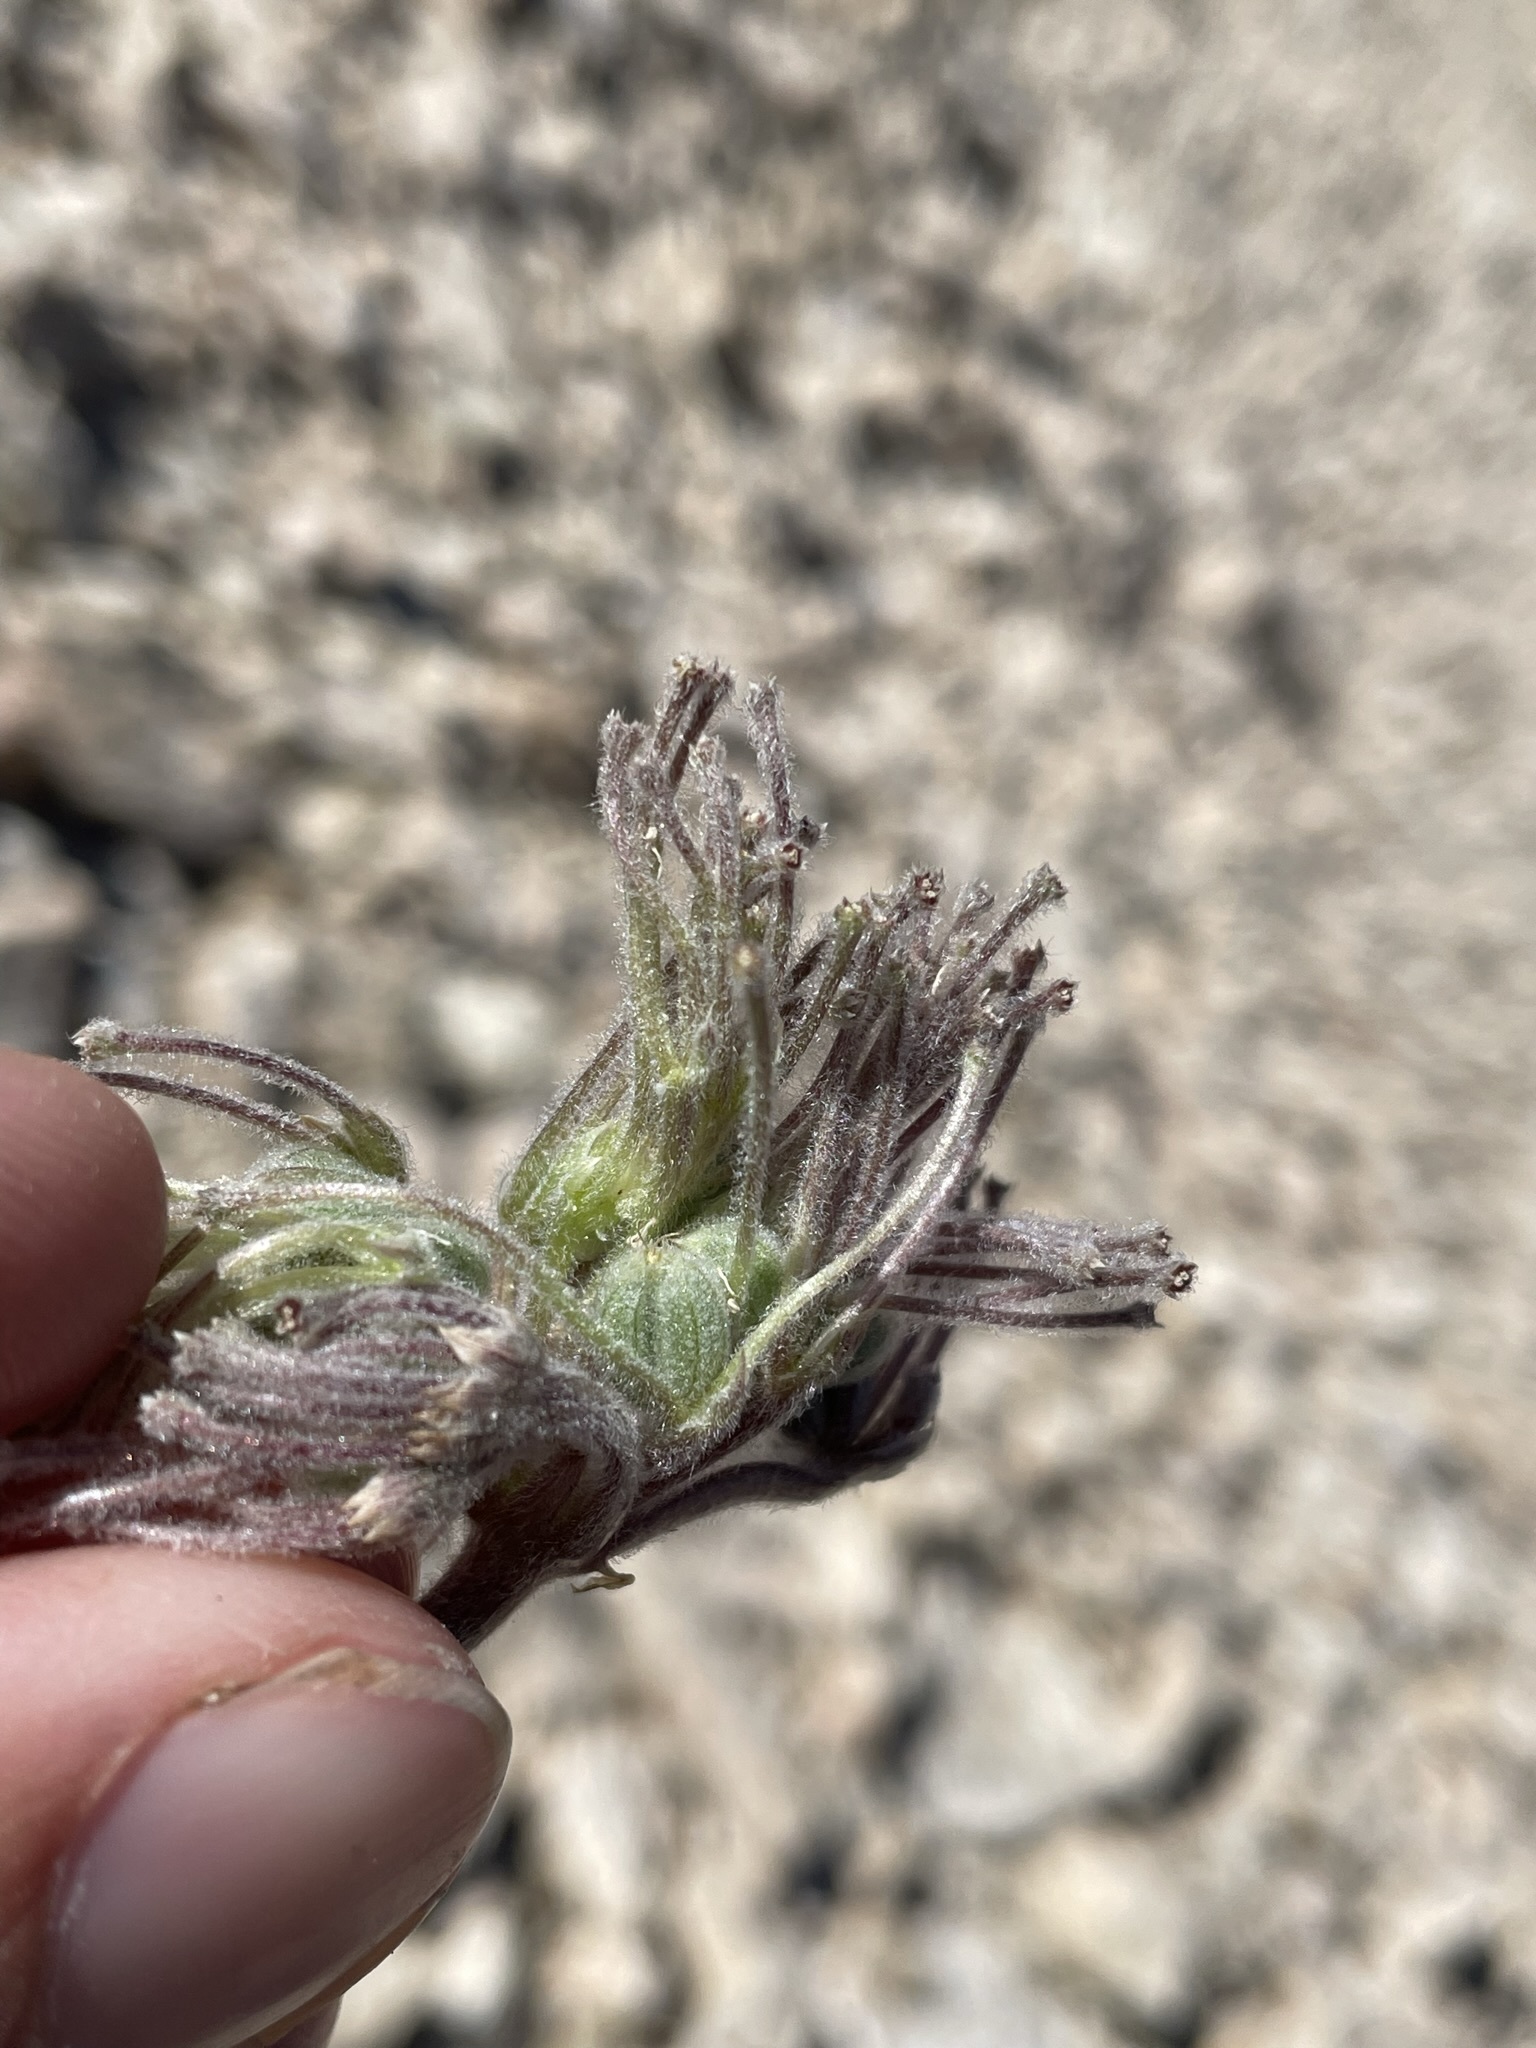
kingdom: Plantae
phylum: Tracheophyta
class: Magnoliopsida
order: Apiales
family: Apiaceae
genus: Oreonana
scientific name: Oreonana vestita
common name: Woolly mountain-parsley
